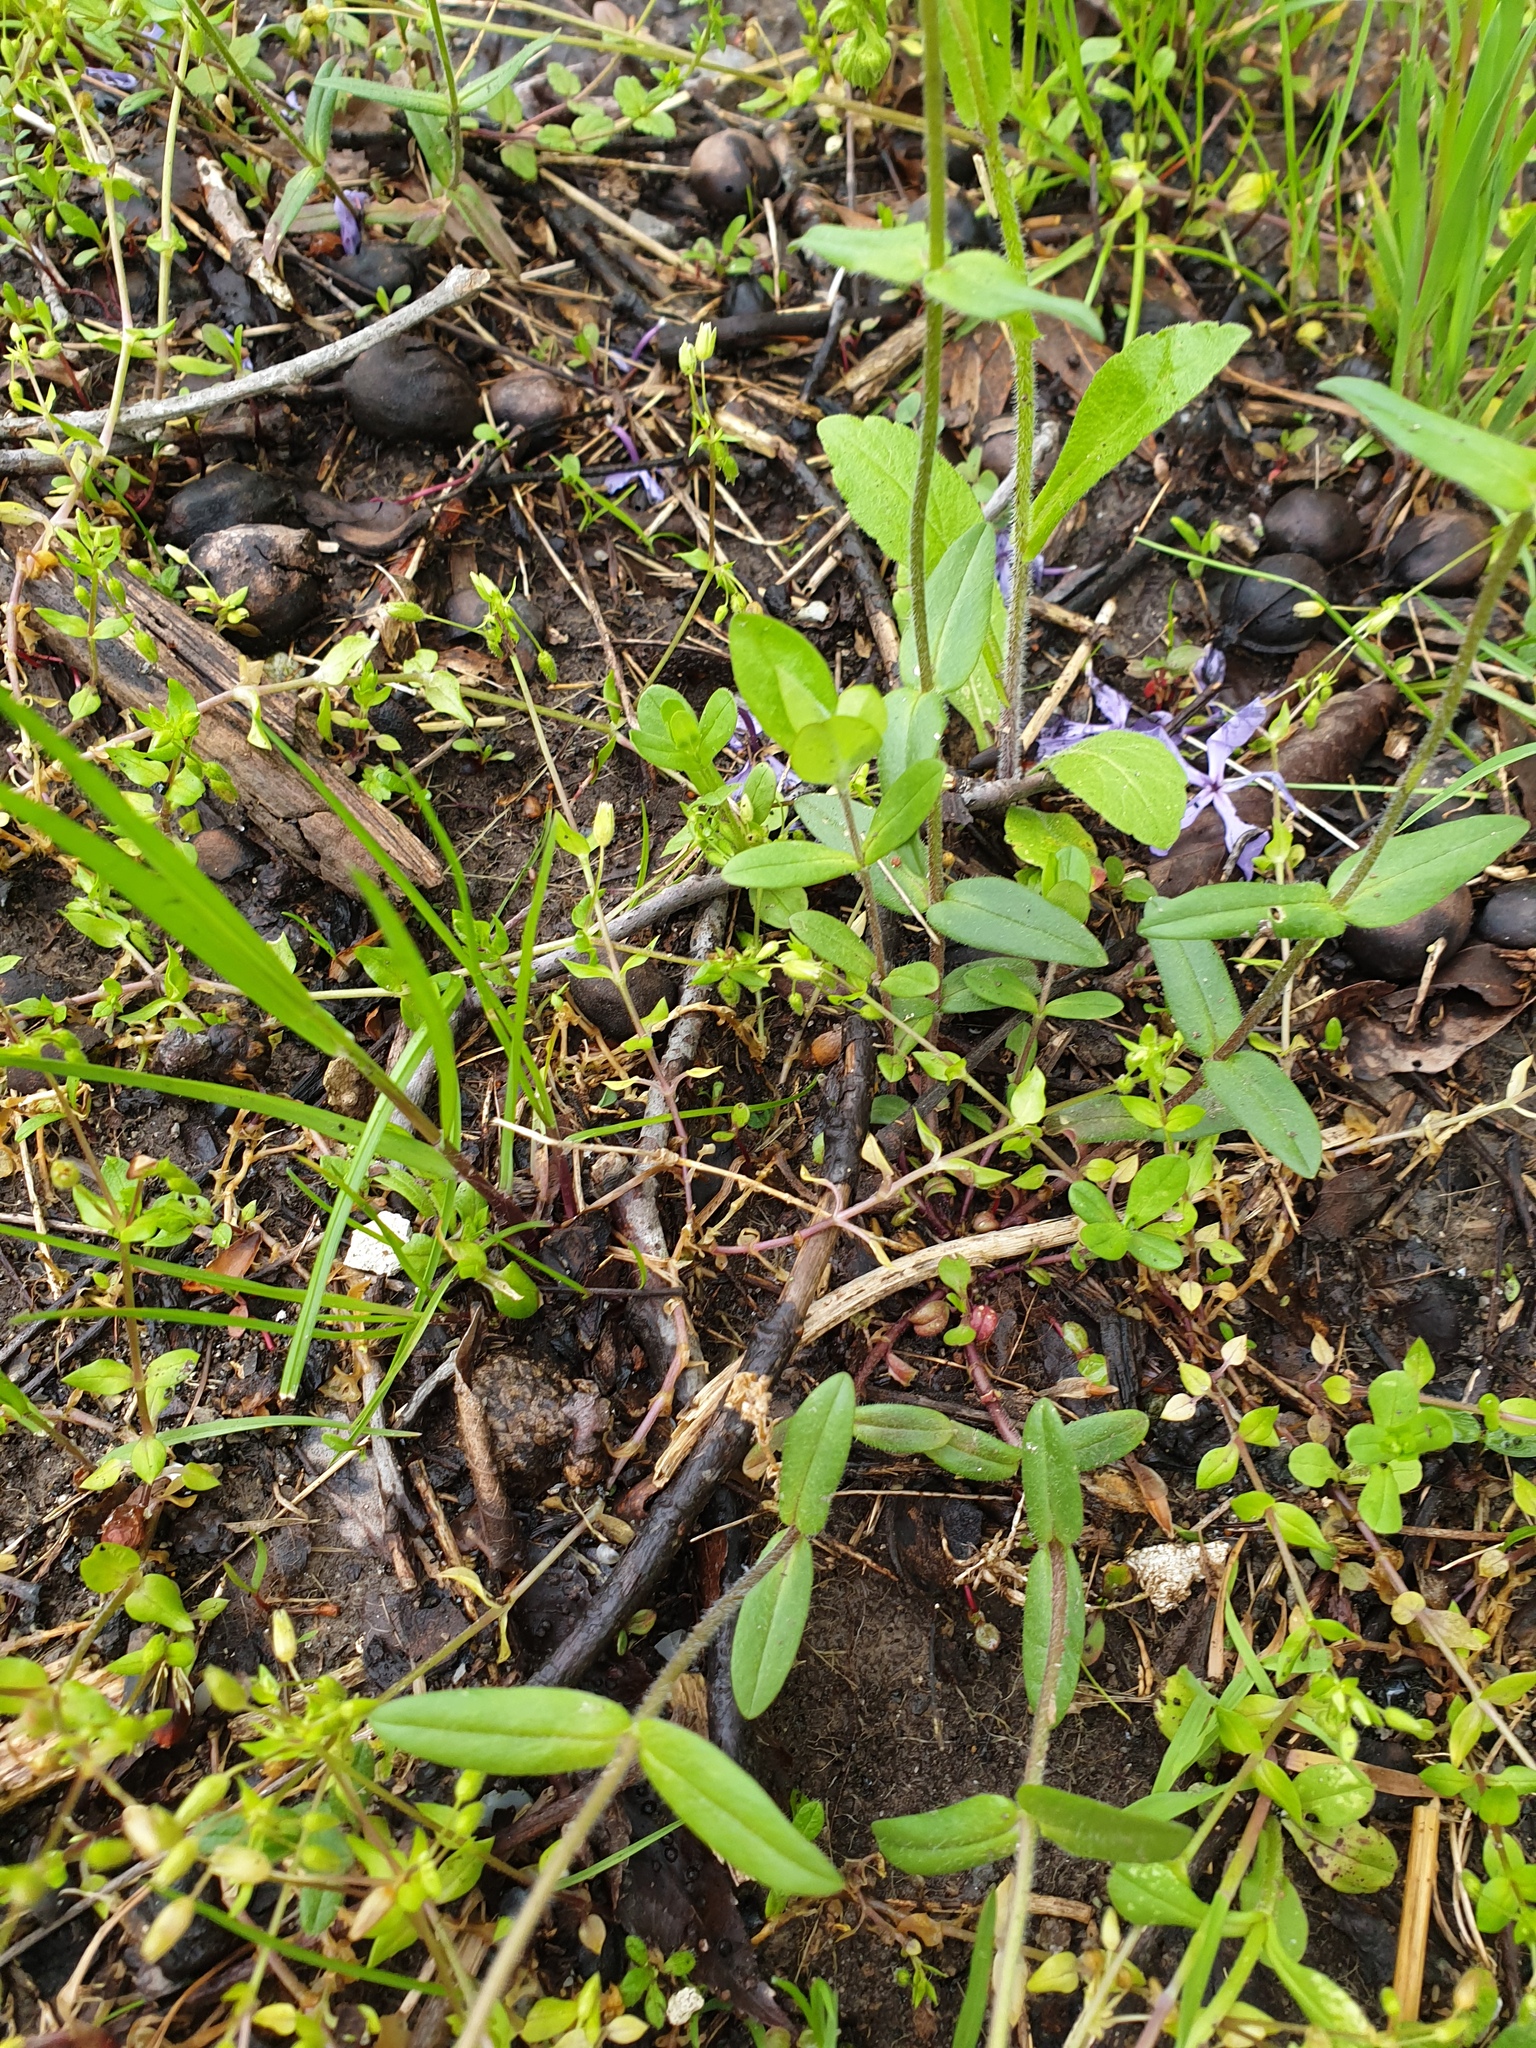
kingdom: Plantae
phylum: Tracheophyta
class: Magnoliopsida
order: Ericales
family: Polemoniaceae
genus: Phlox
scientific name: Phlox divaricata
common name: Blue phlox
